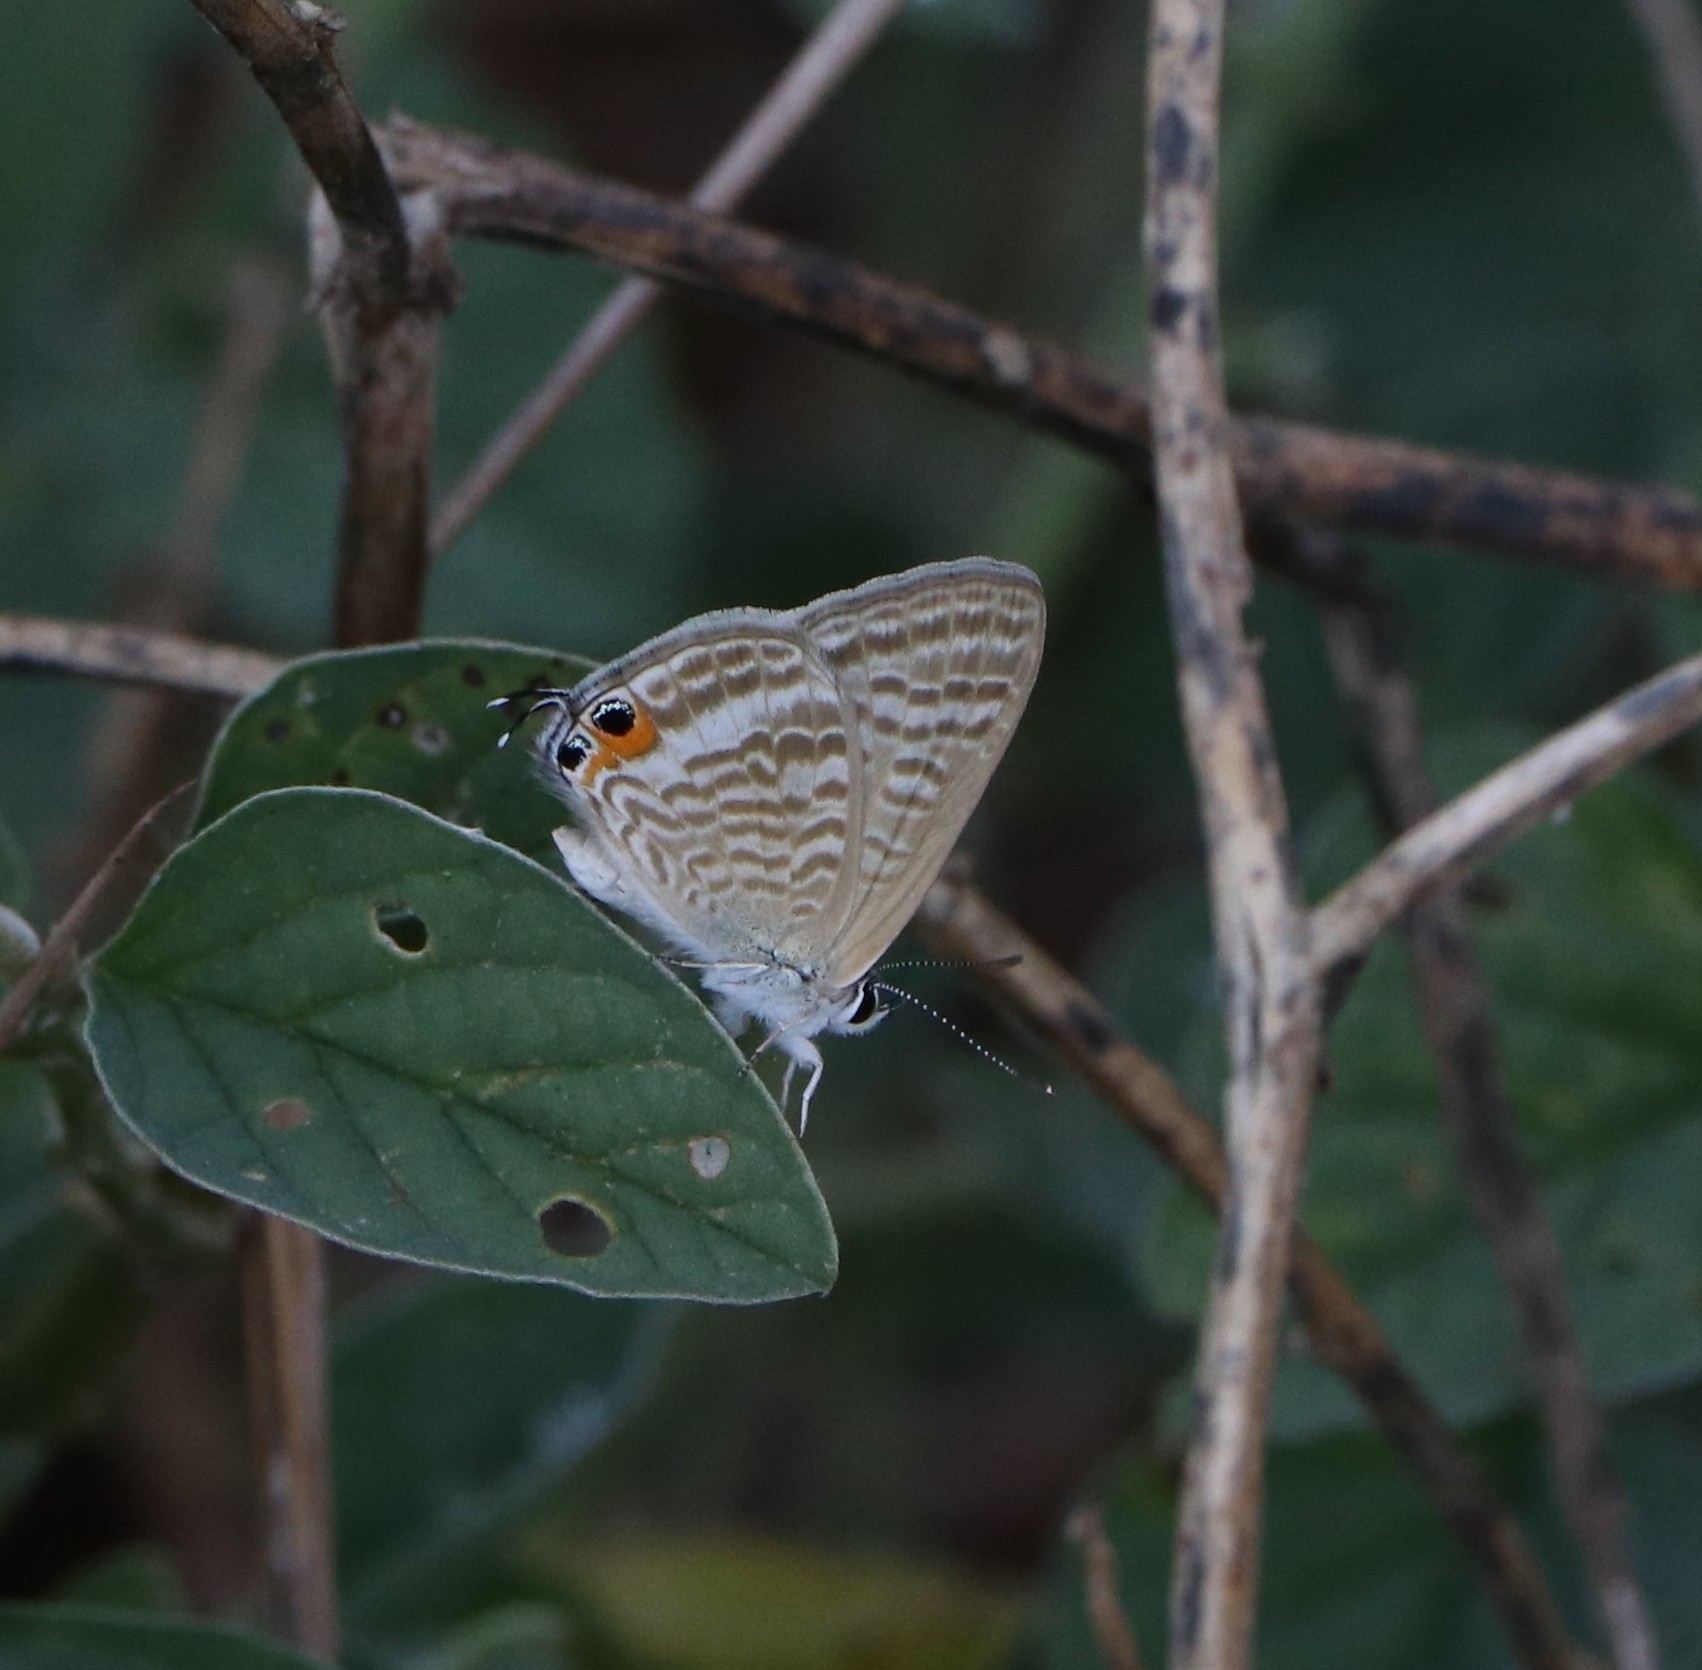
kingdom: Animalia
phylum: Arthropoda
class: Insecta
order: Lepidoptera
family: Lycaenidae
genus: Lampides
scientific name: Lampides boeticus
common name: Long-tailed blue
